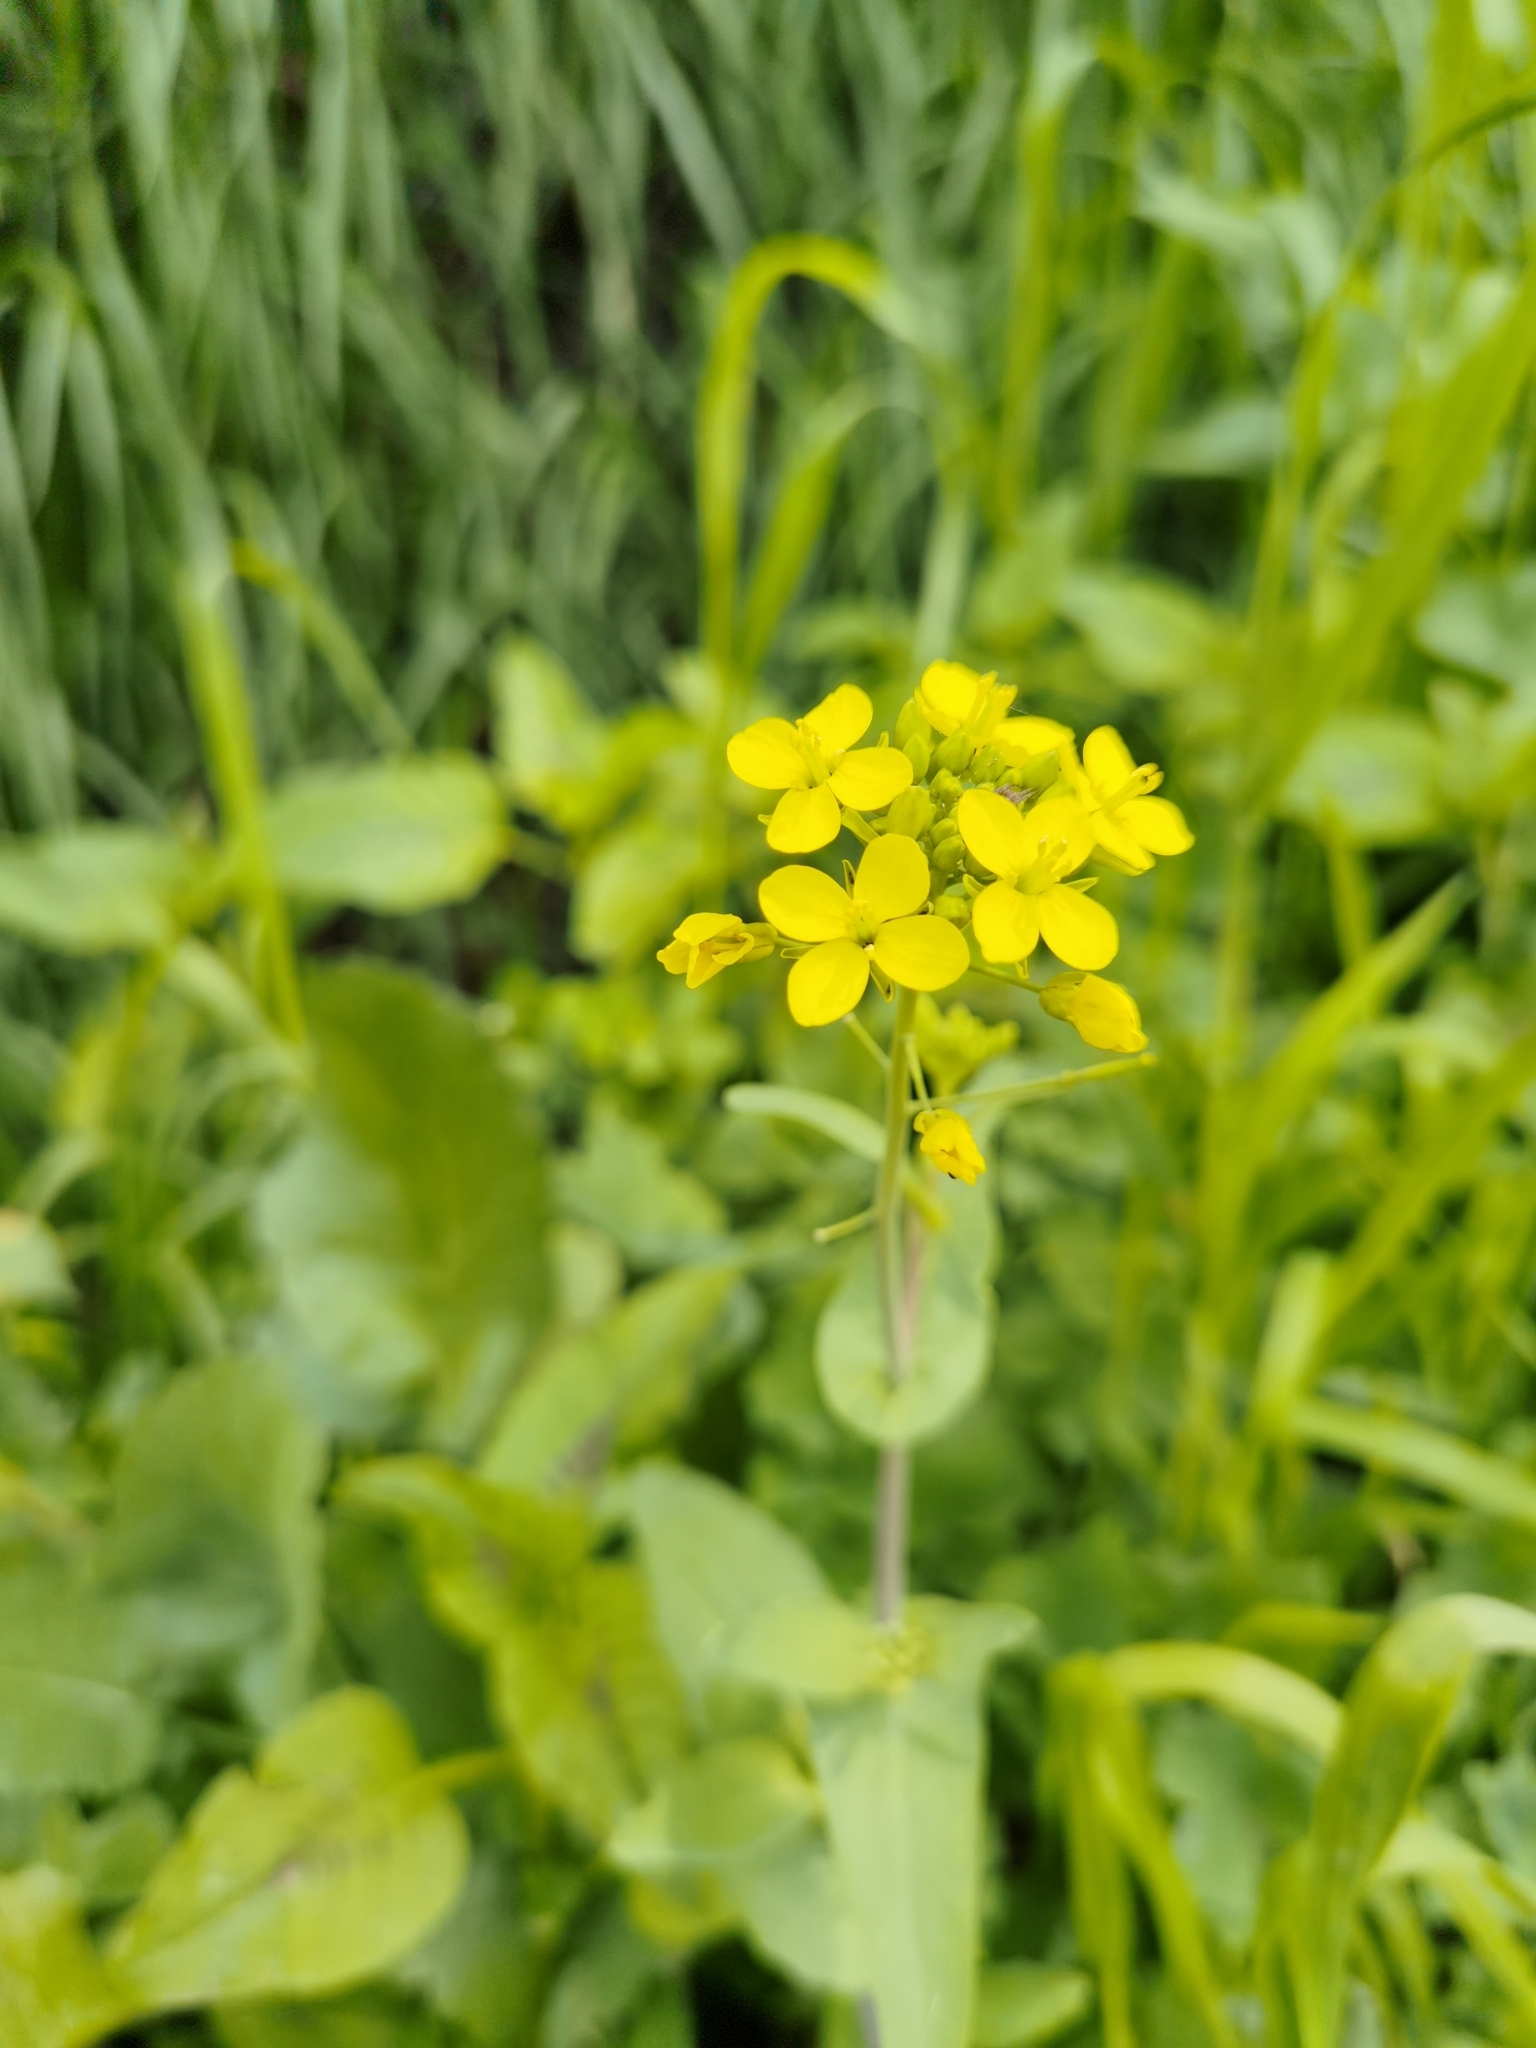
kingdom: Plantae
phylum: Tracheophyta
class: Magnoliopsida
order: Brassicales
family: Brassicaceae
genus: Brassica
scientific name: Brassica rapa
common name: Field mustard
